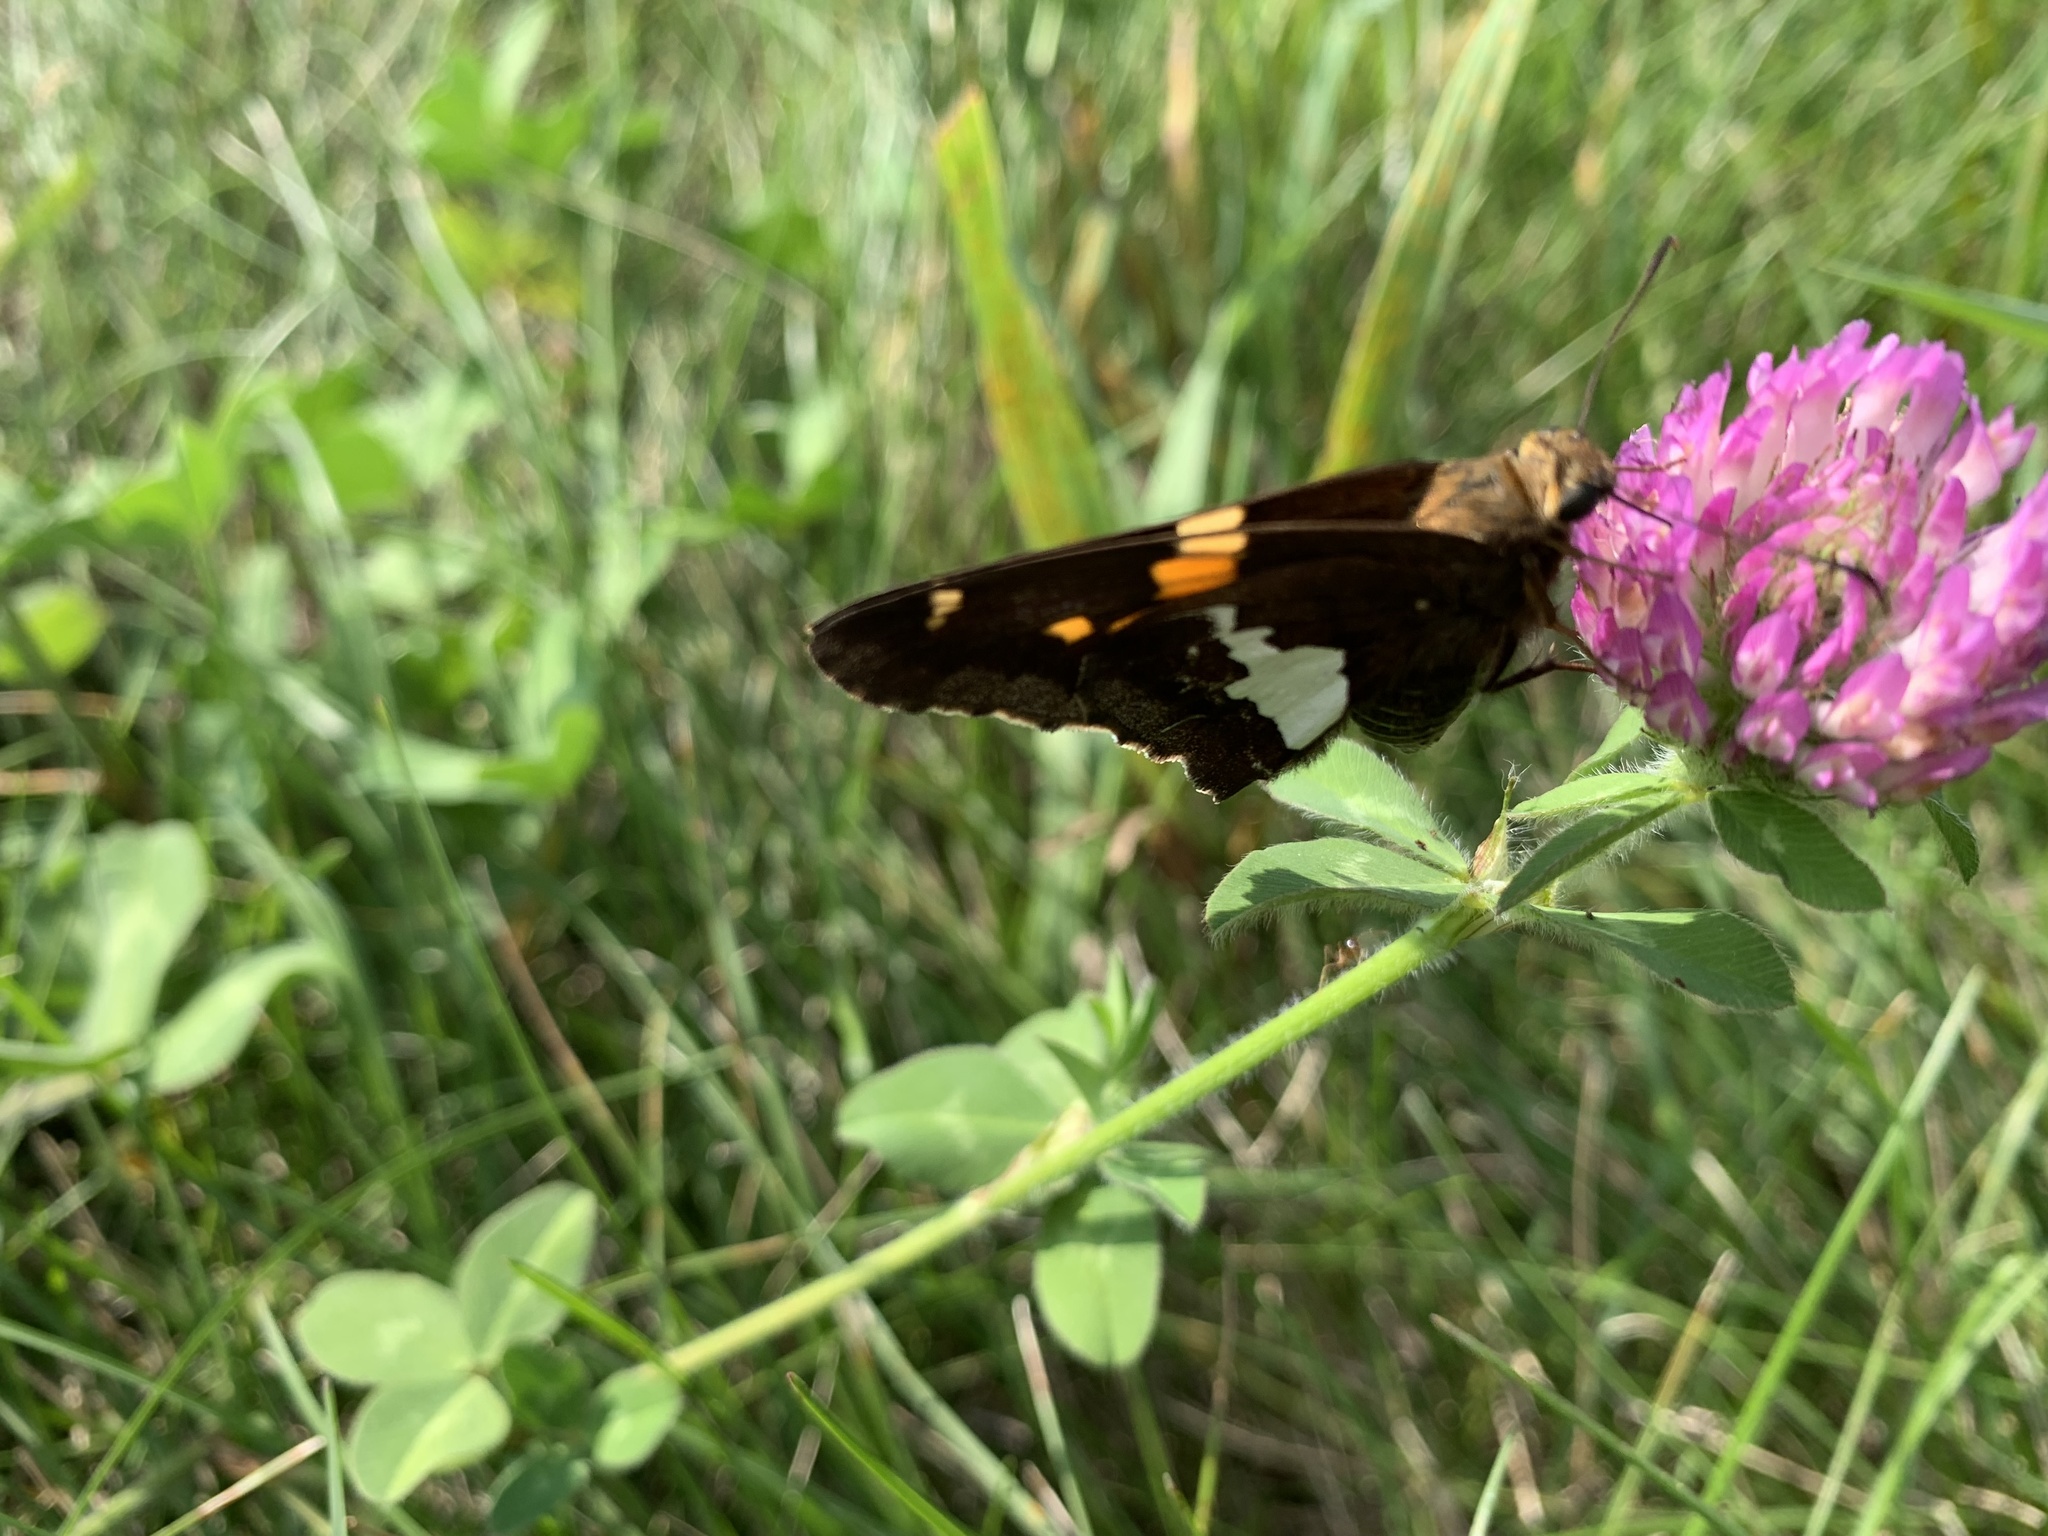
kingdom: Animalia
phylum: Arthropoda
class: Insecta
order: Lepidoptera
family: Hesperiidae
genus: Epargyreus
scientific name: Epargyreus clarus
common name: Silver-spotted skipper
